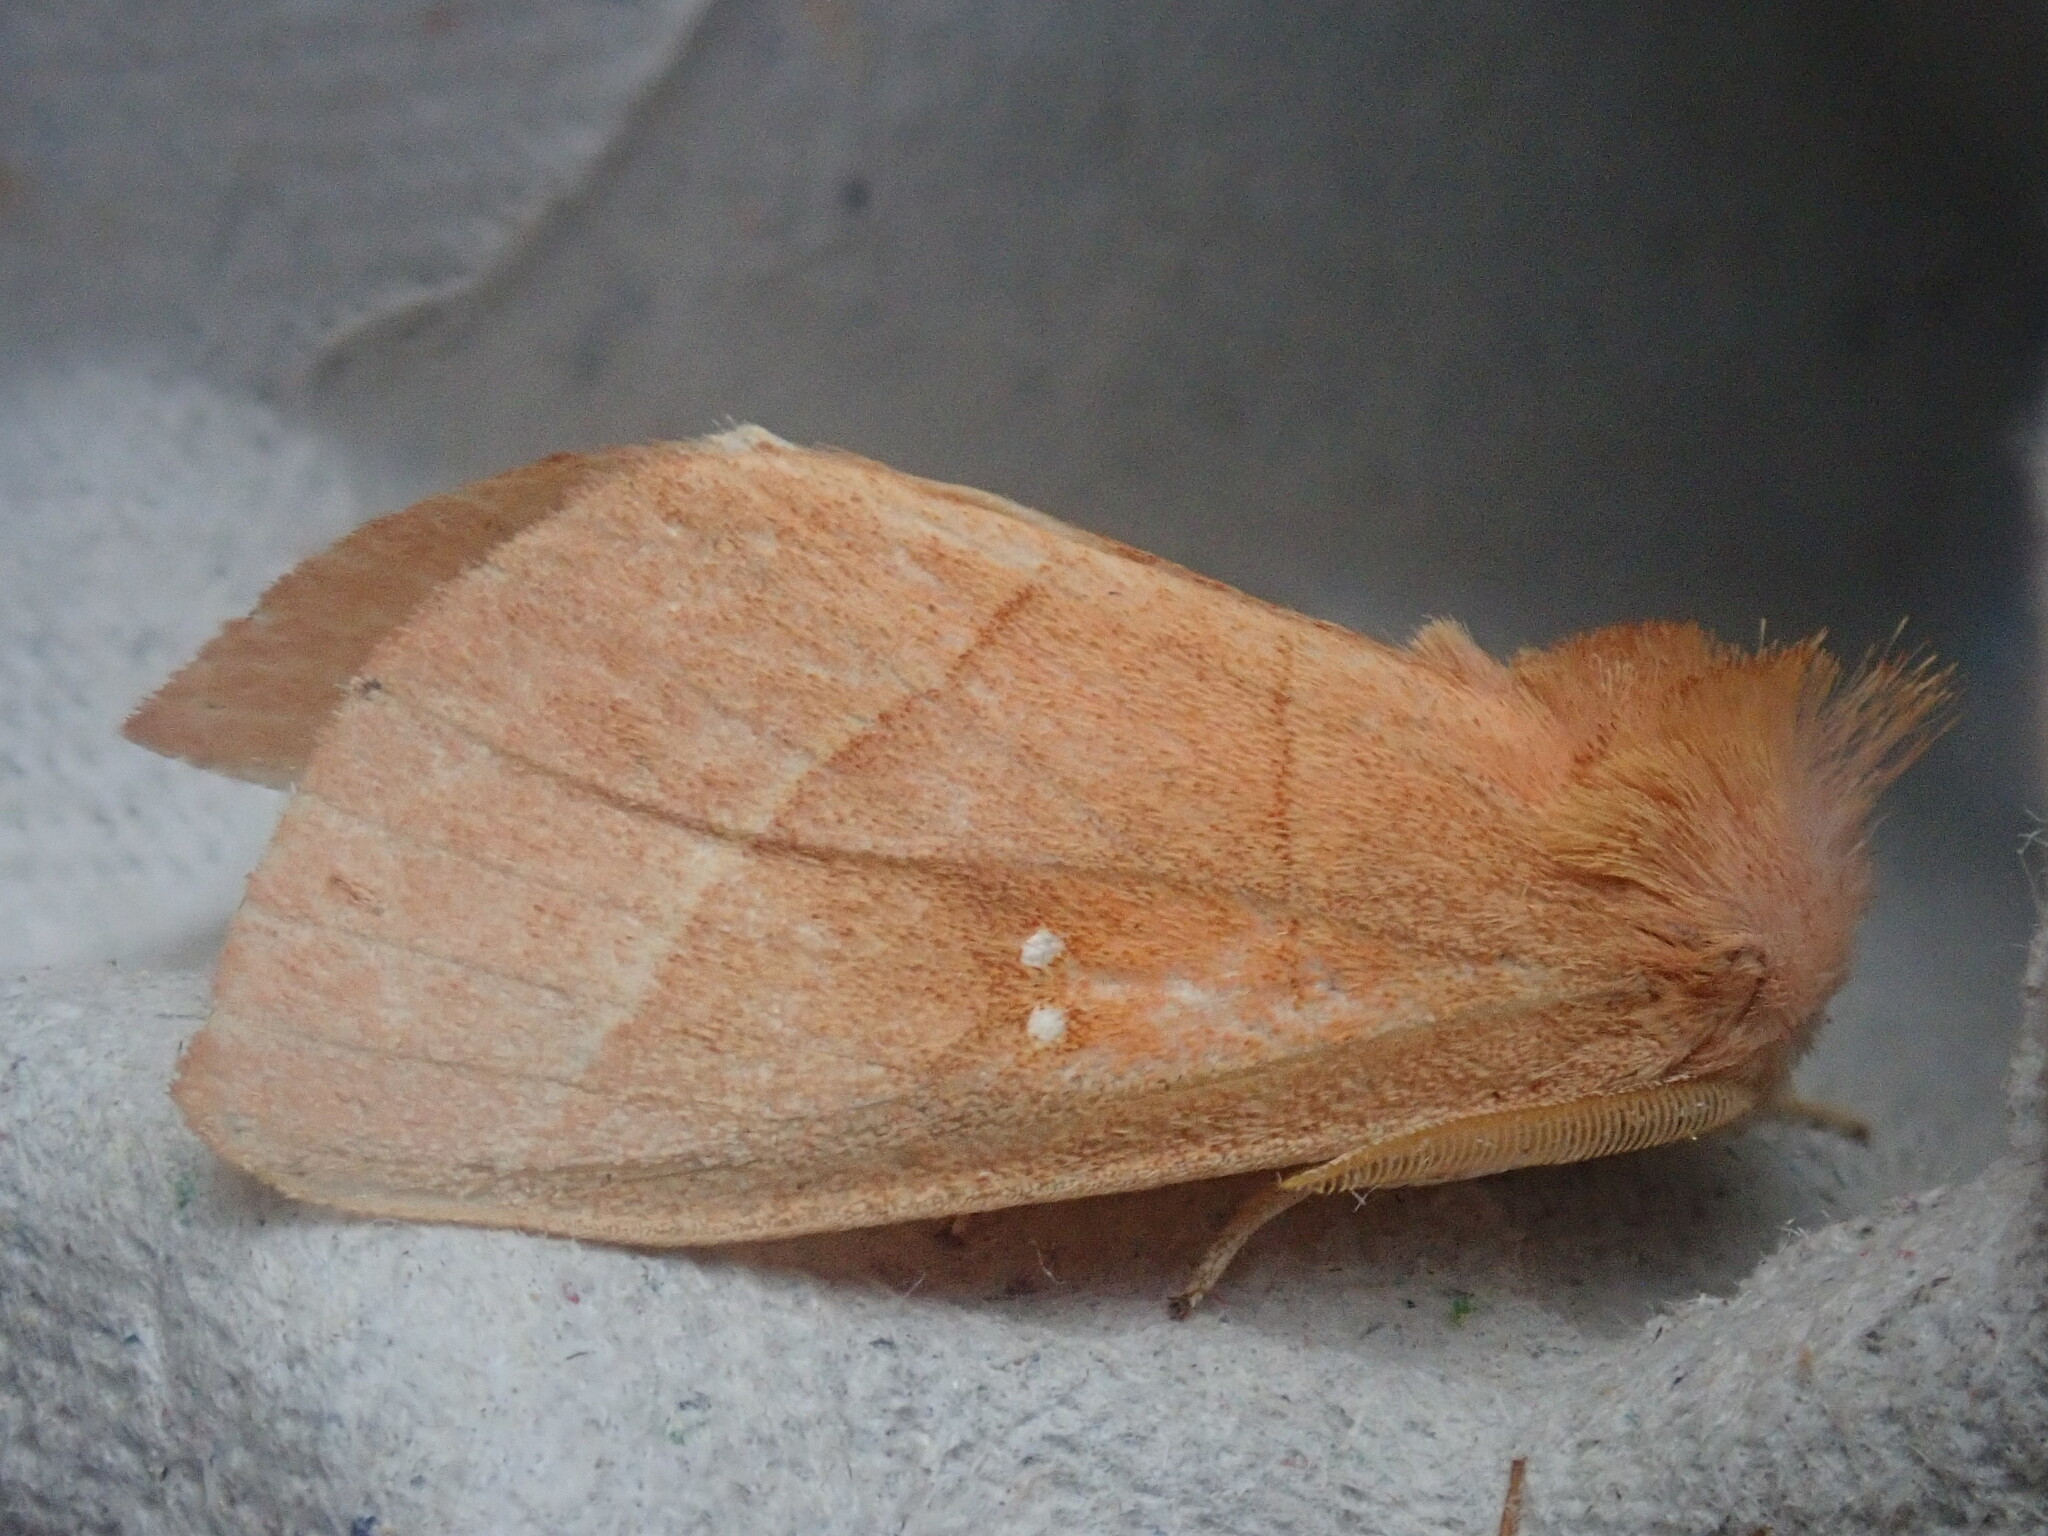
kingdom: Animalia
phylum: Arthropoda
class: Insecta
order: Lepidoptera
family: Notodontidae
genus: Nadata
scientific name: Nadata gibbosa
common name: White-dotted prominent
